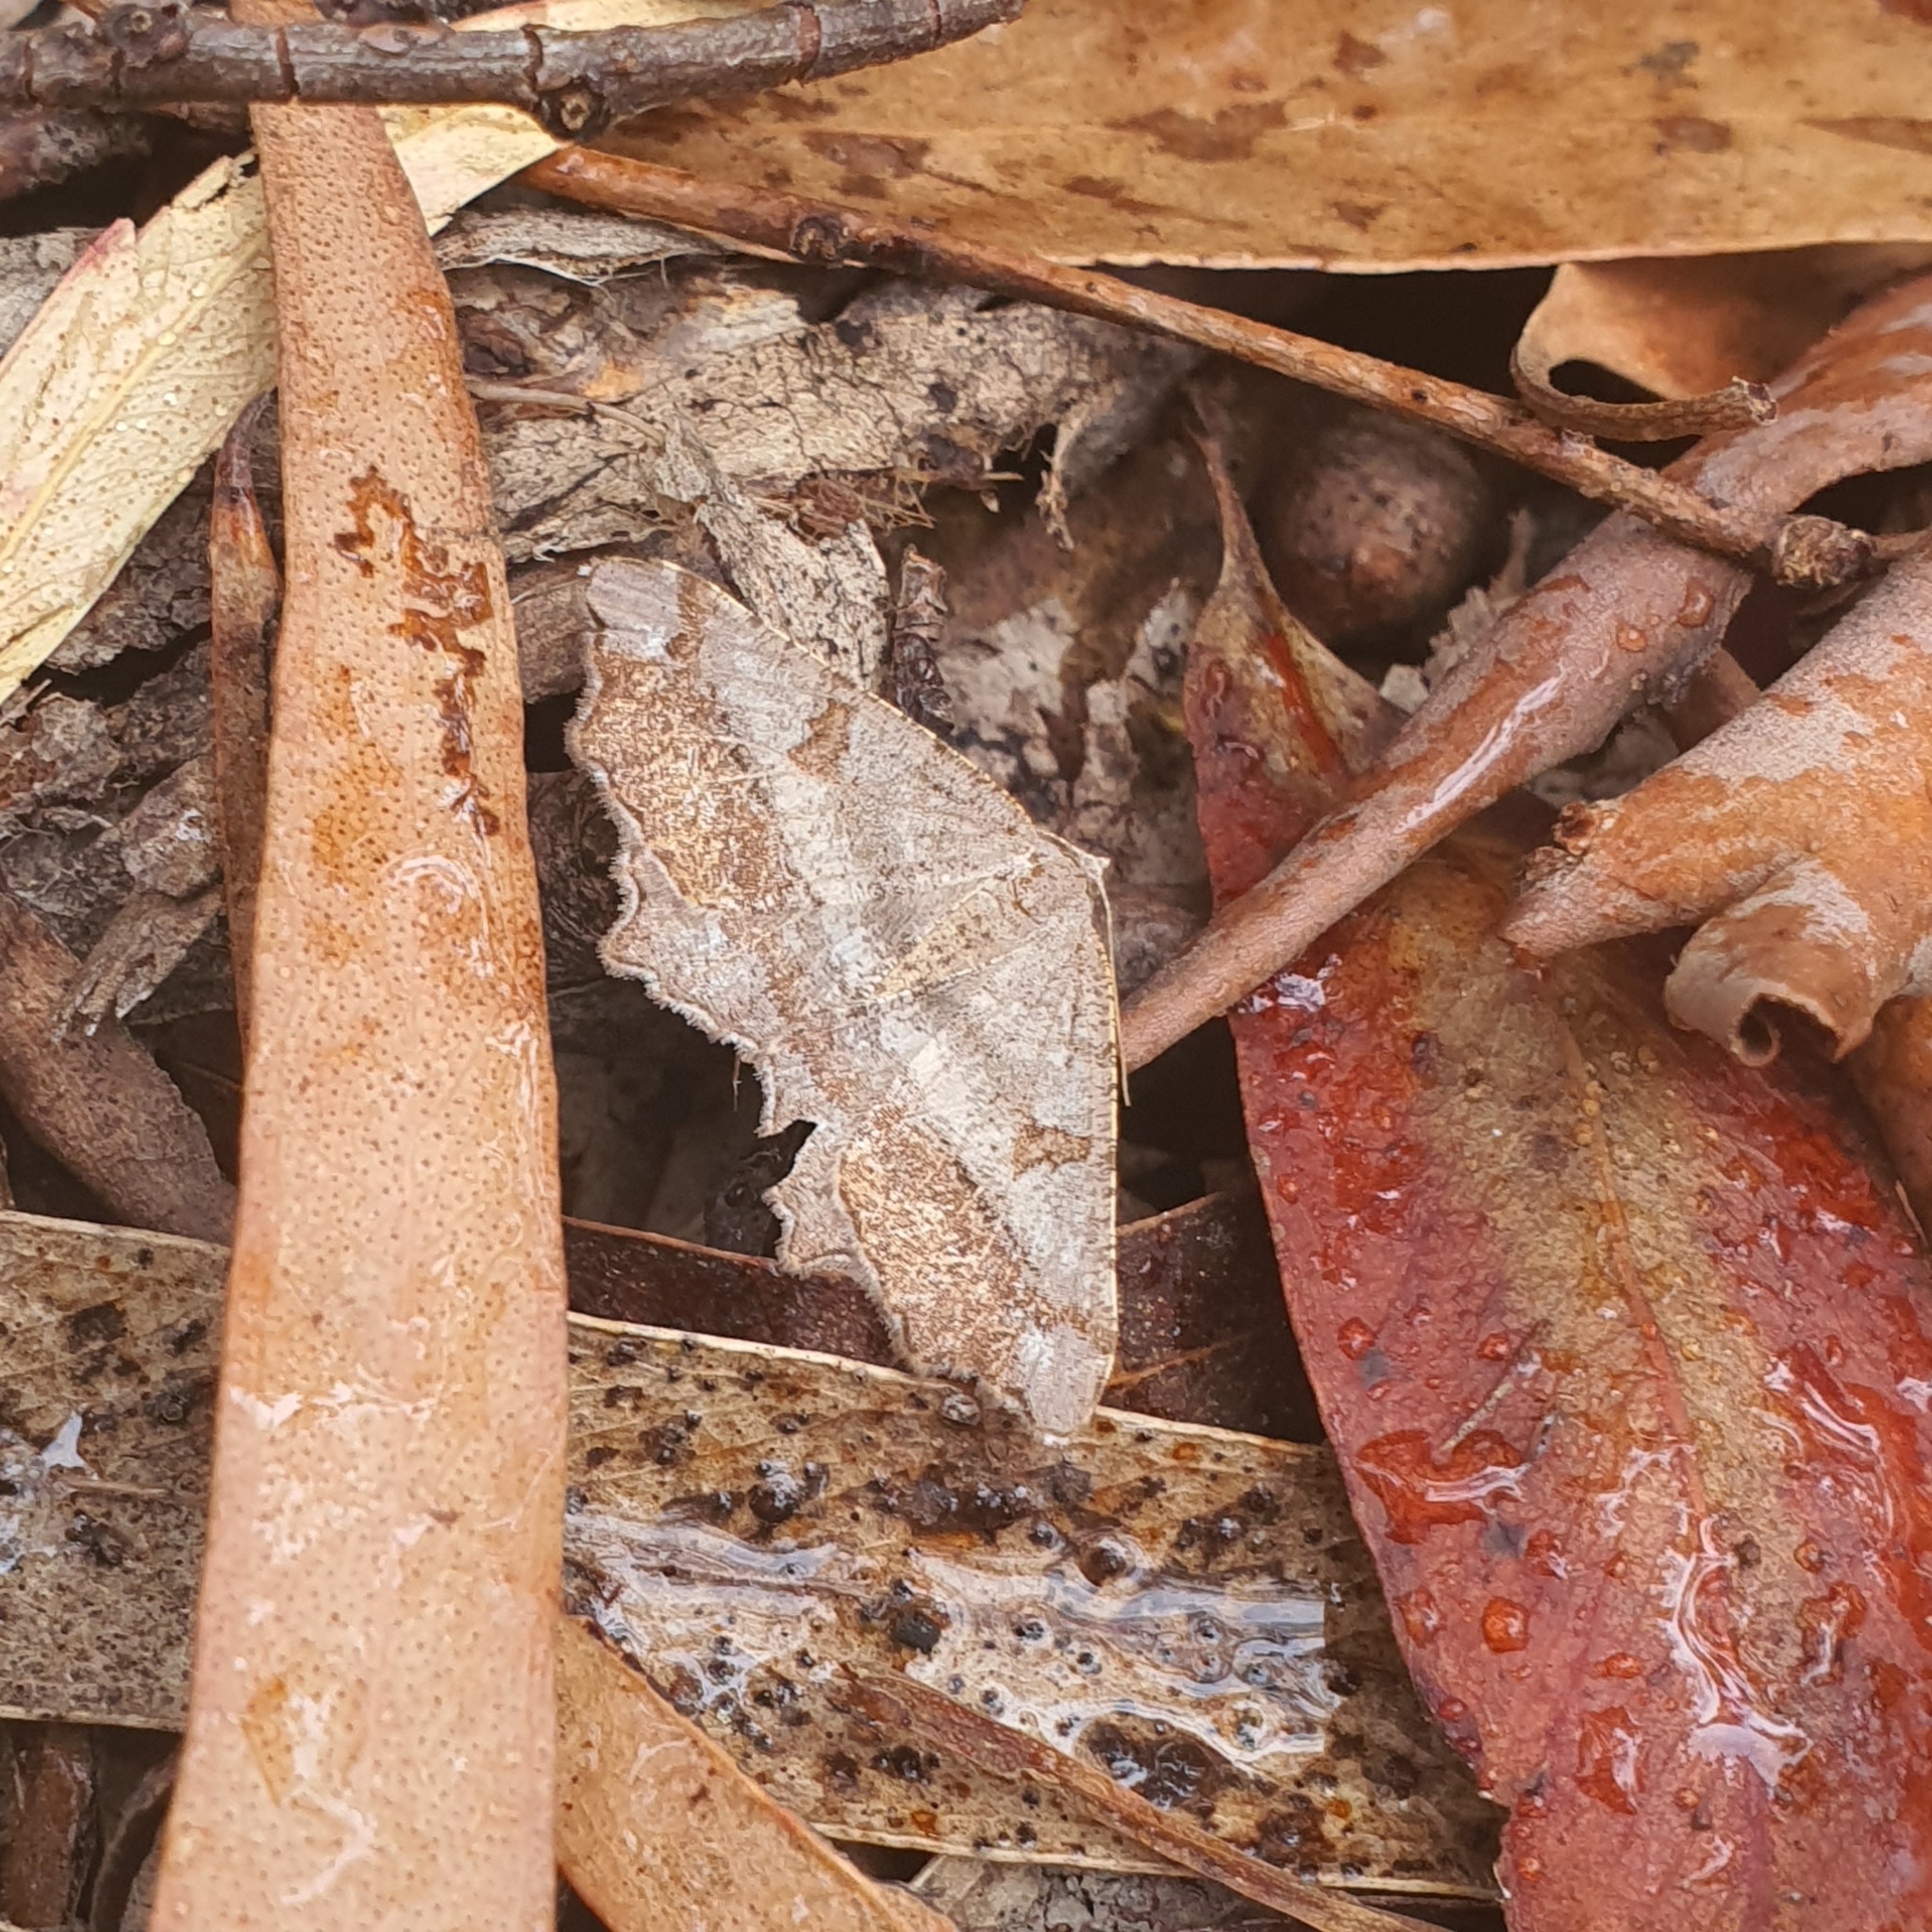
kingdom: Animalia
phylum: Arthropoda
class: Insecta
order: Lepidoptera
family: Geometridae
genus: Dissomorphia
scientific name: Dissomorphia australiaria
